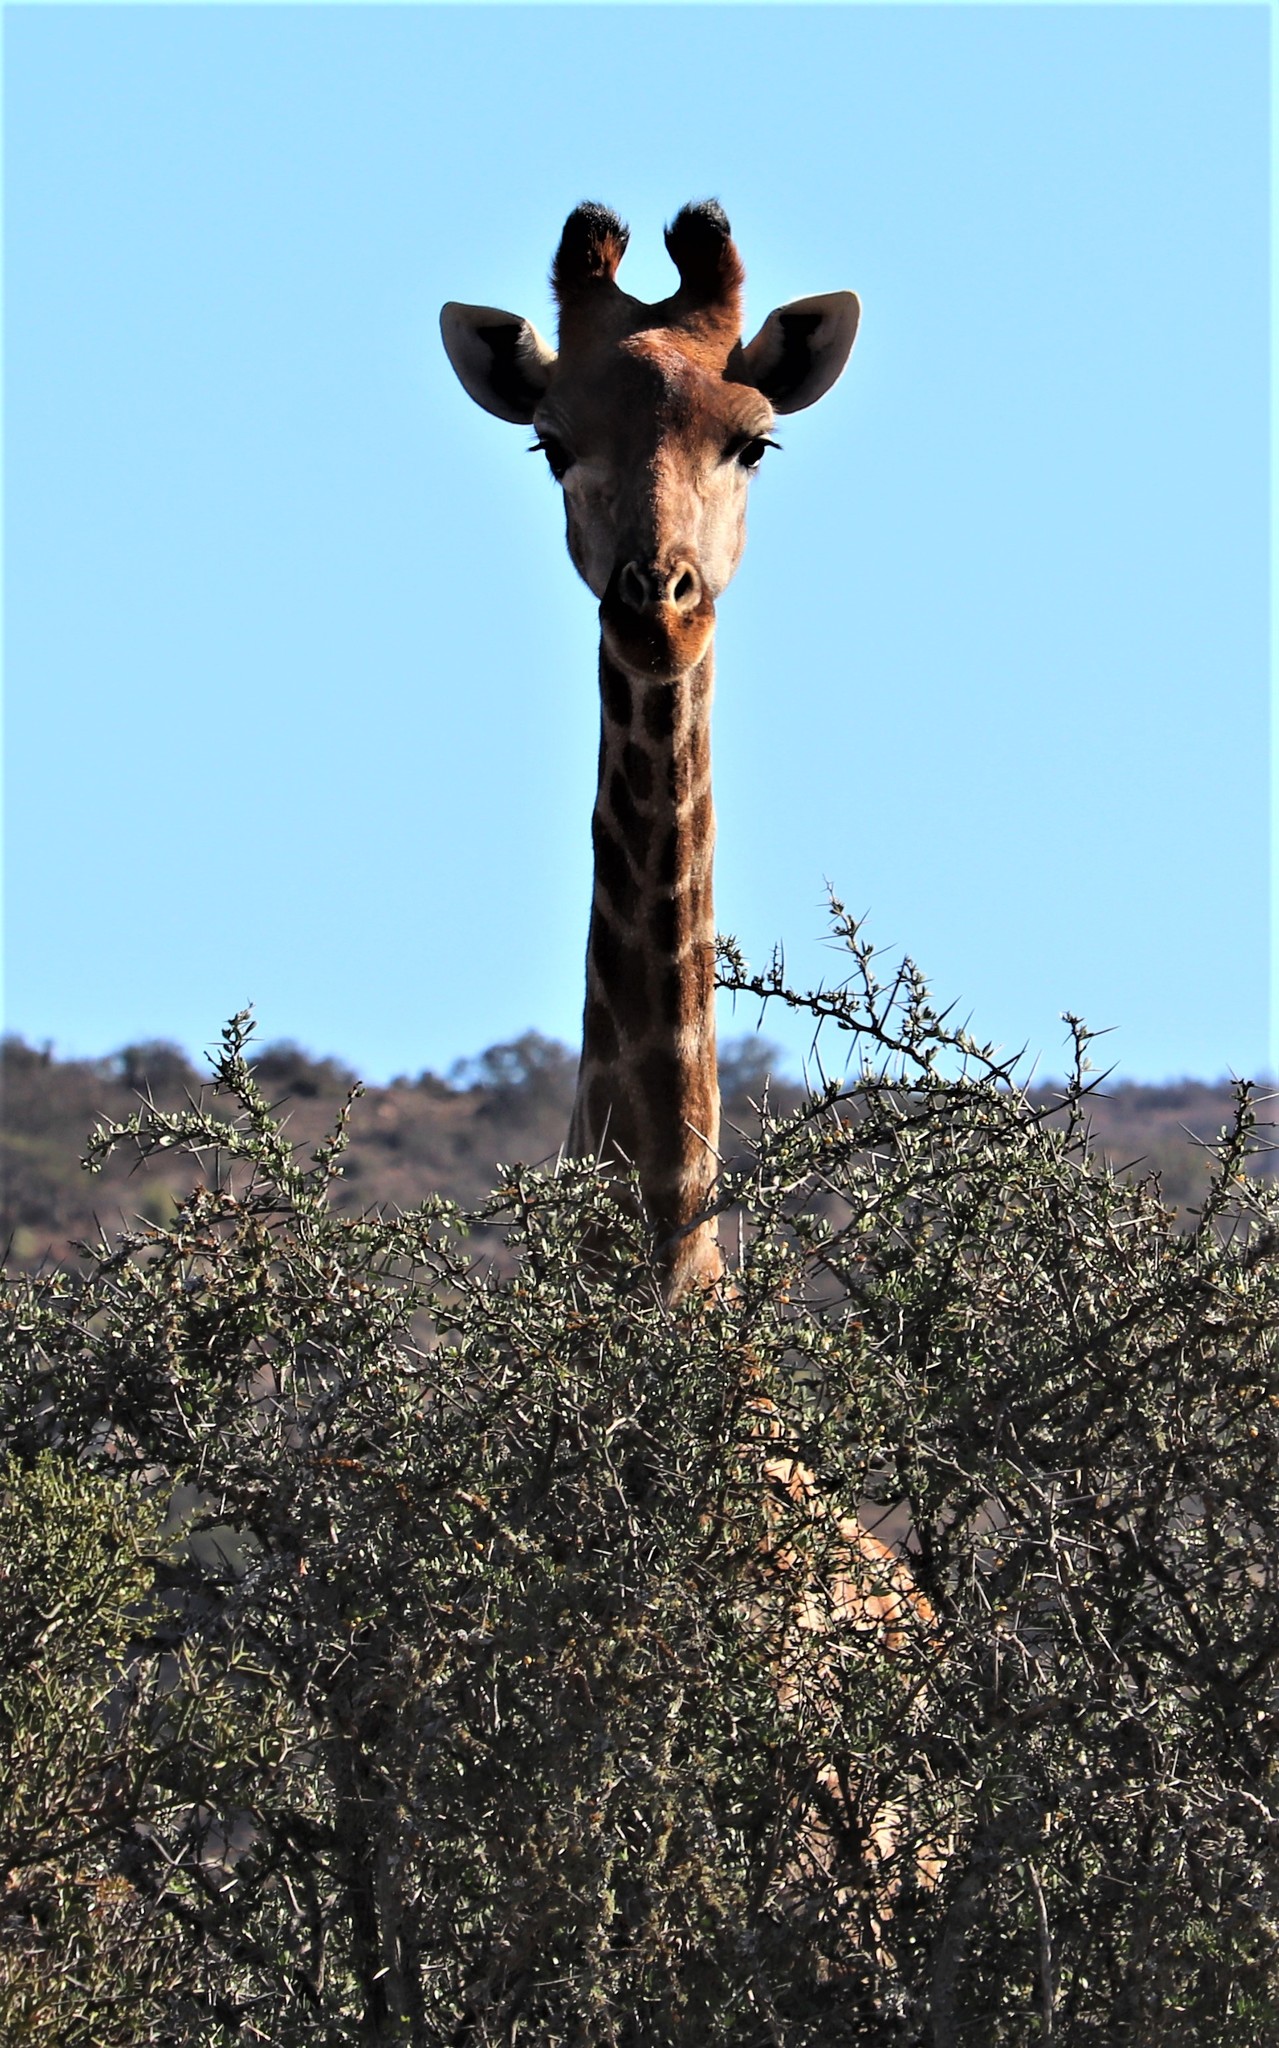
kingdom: Animalia
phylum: Chordata
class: Mammalia
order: Artiodactyla
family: Giraffidae
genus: Giraffa
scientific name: Giraffa giraffa
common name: Southern giraffe
